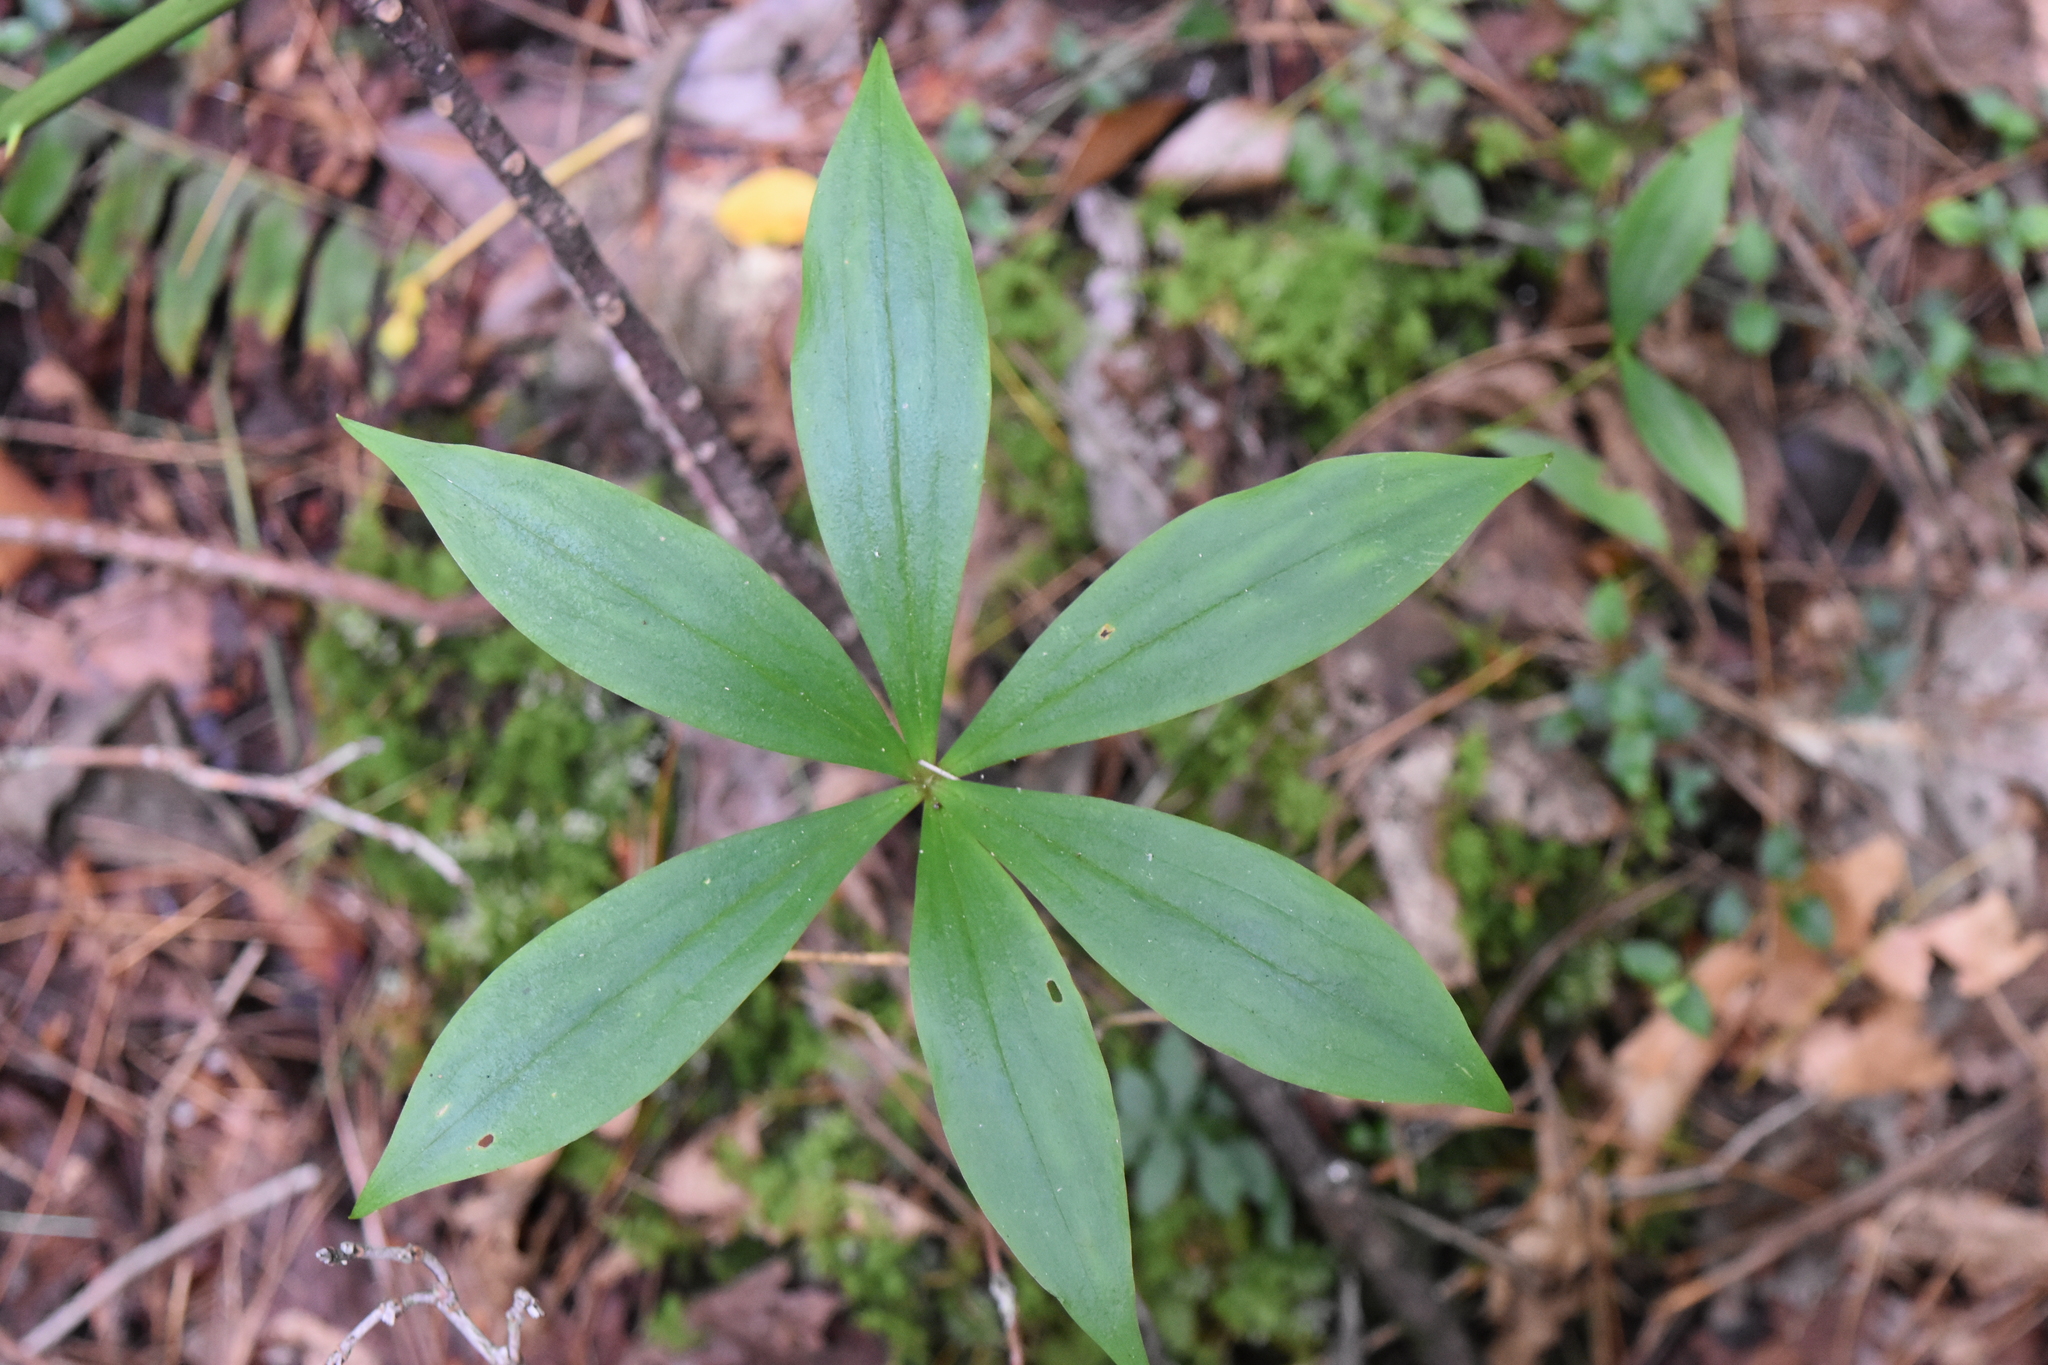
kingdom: Plantae
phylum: Tracheophyta
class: Liliopsida
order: Liliales
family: Liliaceae
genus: Medeola
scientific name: Medeola virginiana
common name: Indian cucumber-root
